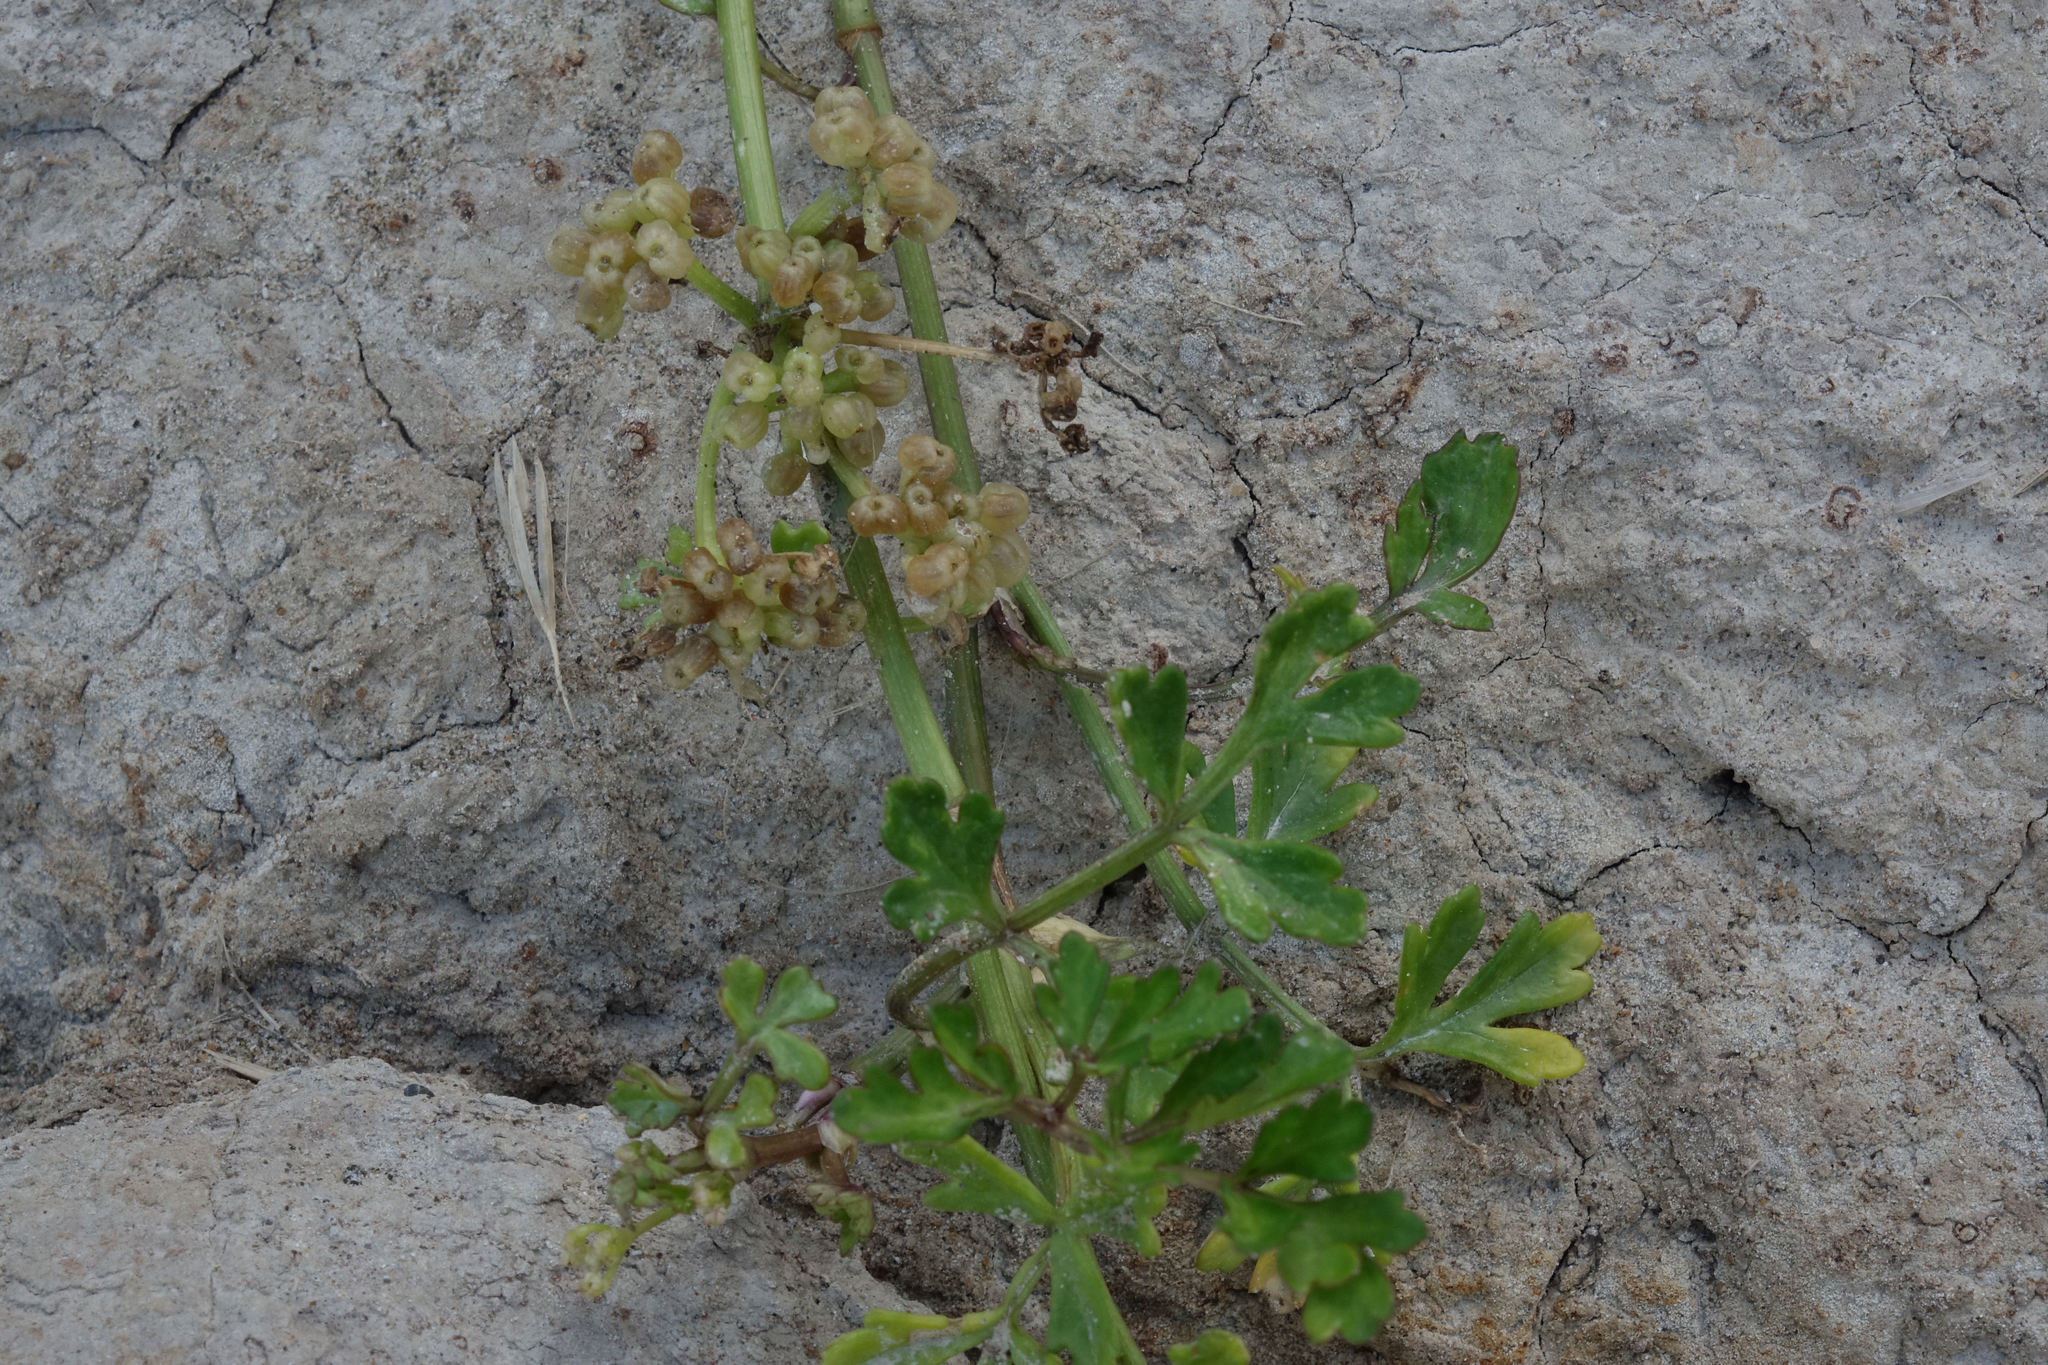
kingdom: Plantae
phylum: Tracheophyta
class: Magnoliopsida
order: Apiales
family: Apiaceae
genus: Apium
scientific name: Apium prostratum
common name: Prostrate marshwort
